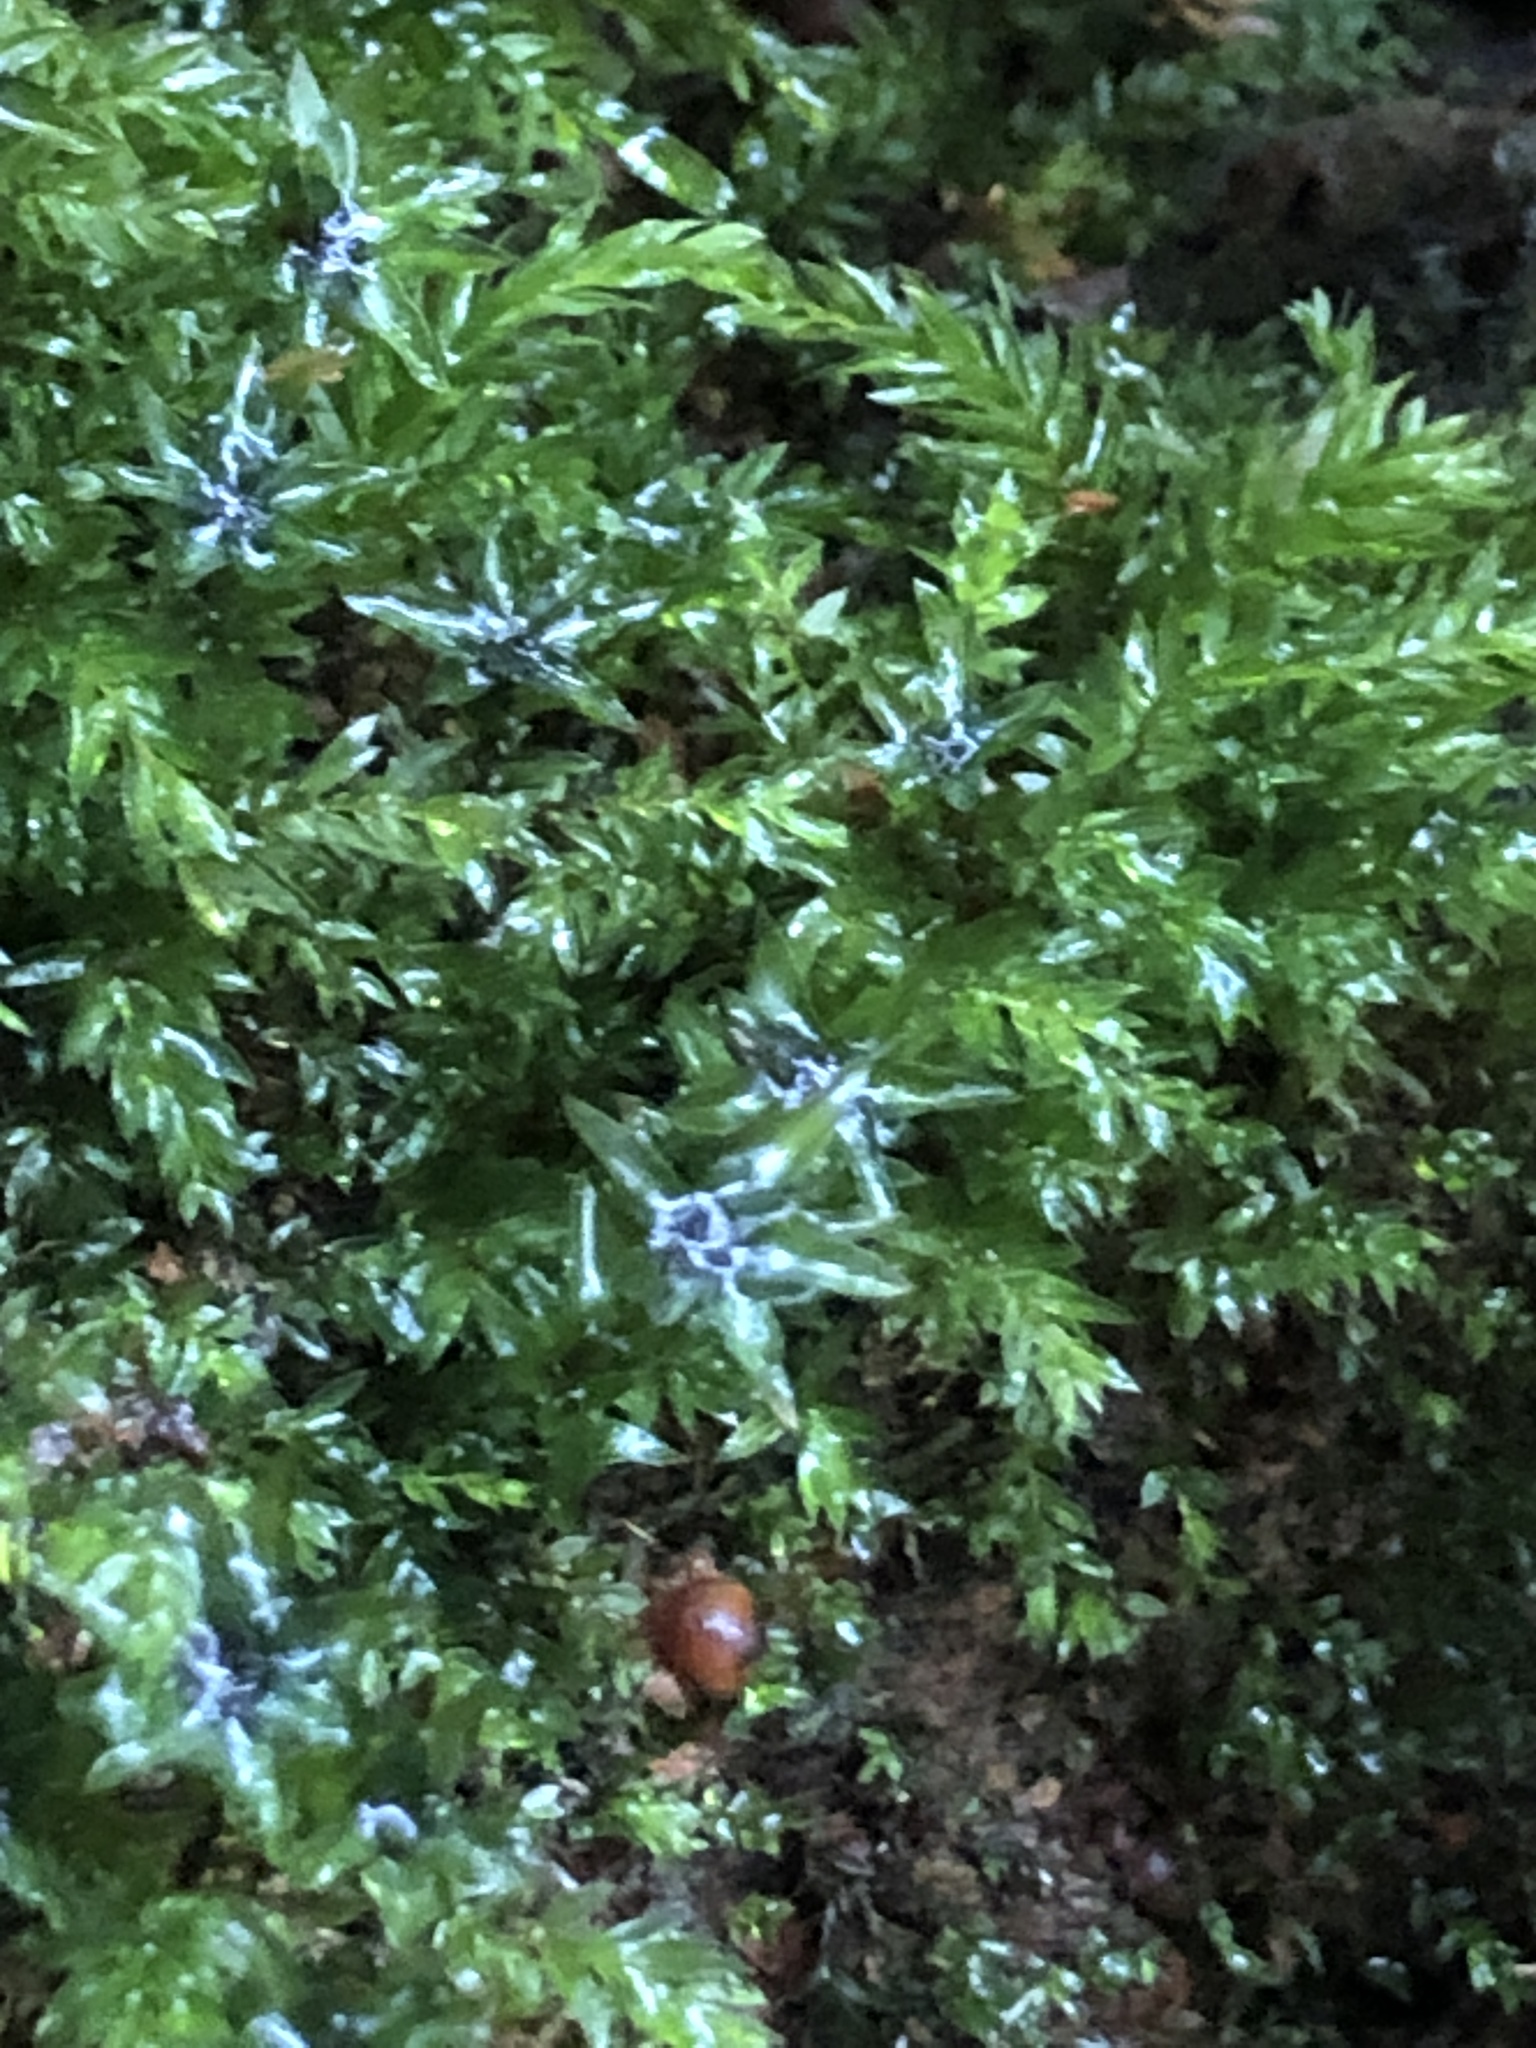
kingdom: Plantae
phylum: Bryophyta
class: Bryopsida
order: Bryales
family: Mniaceae
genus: Mnium
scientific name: Mnium hornum
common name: Swan's-neck leafy moss
